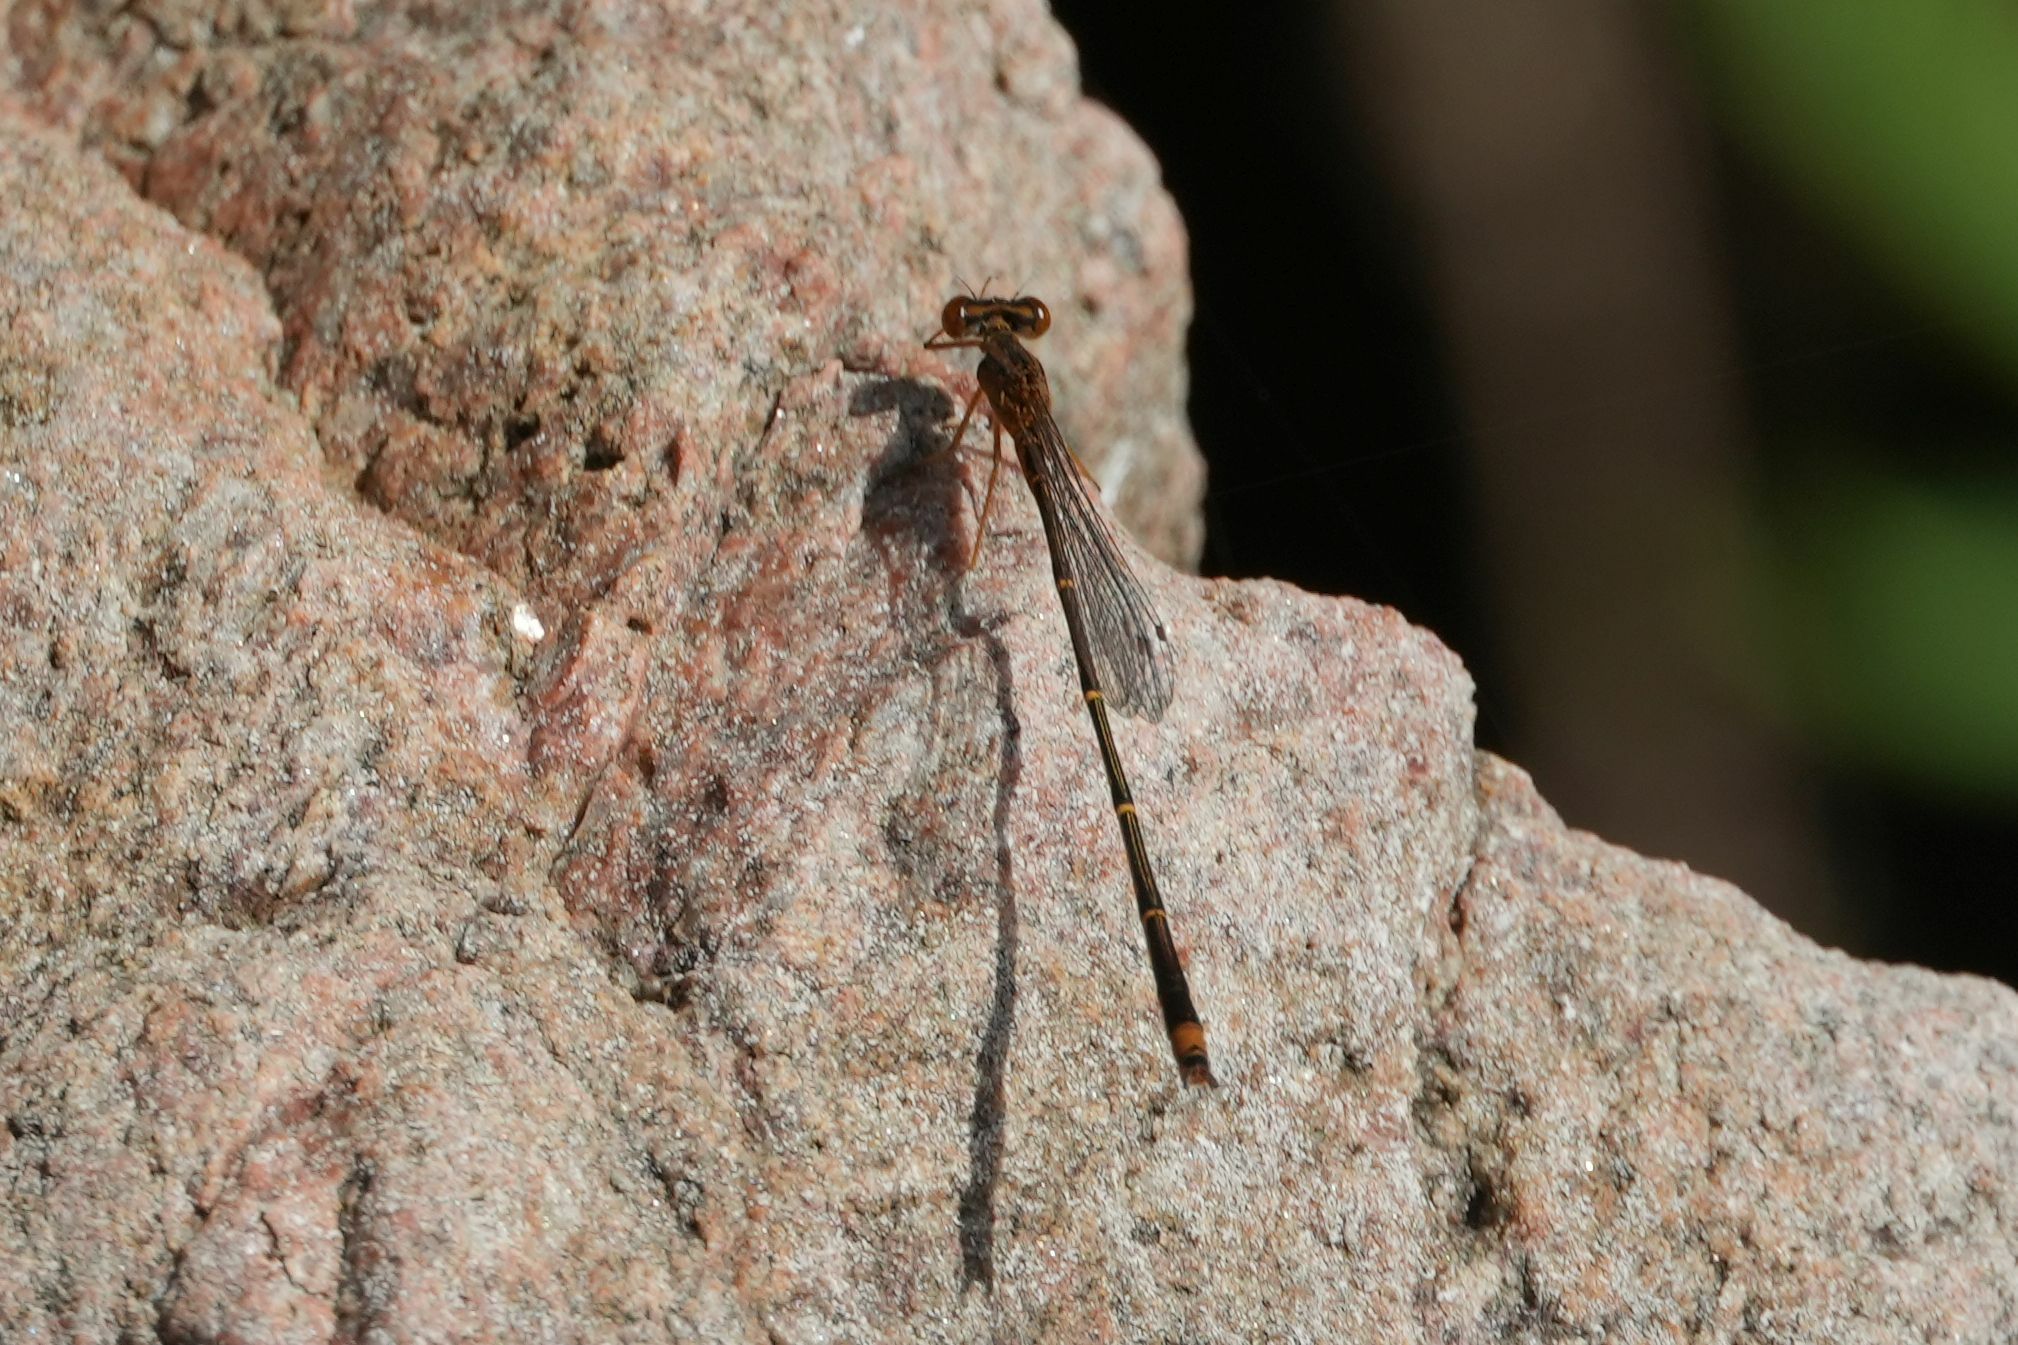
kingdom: Animalia
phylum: Arthropoda
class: Insecta
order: Odonata
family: Coenagrionidae
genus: Enallagma
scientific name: Enallagma signatum
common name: Orange bluet
